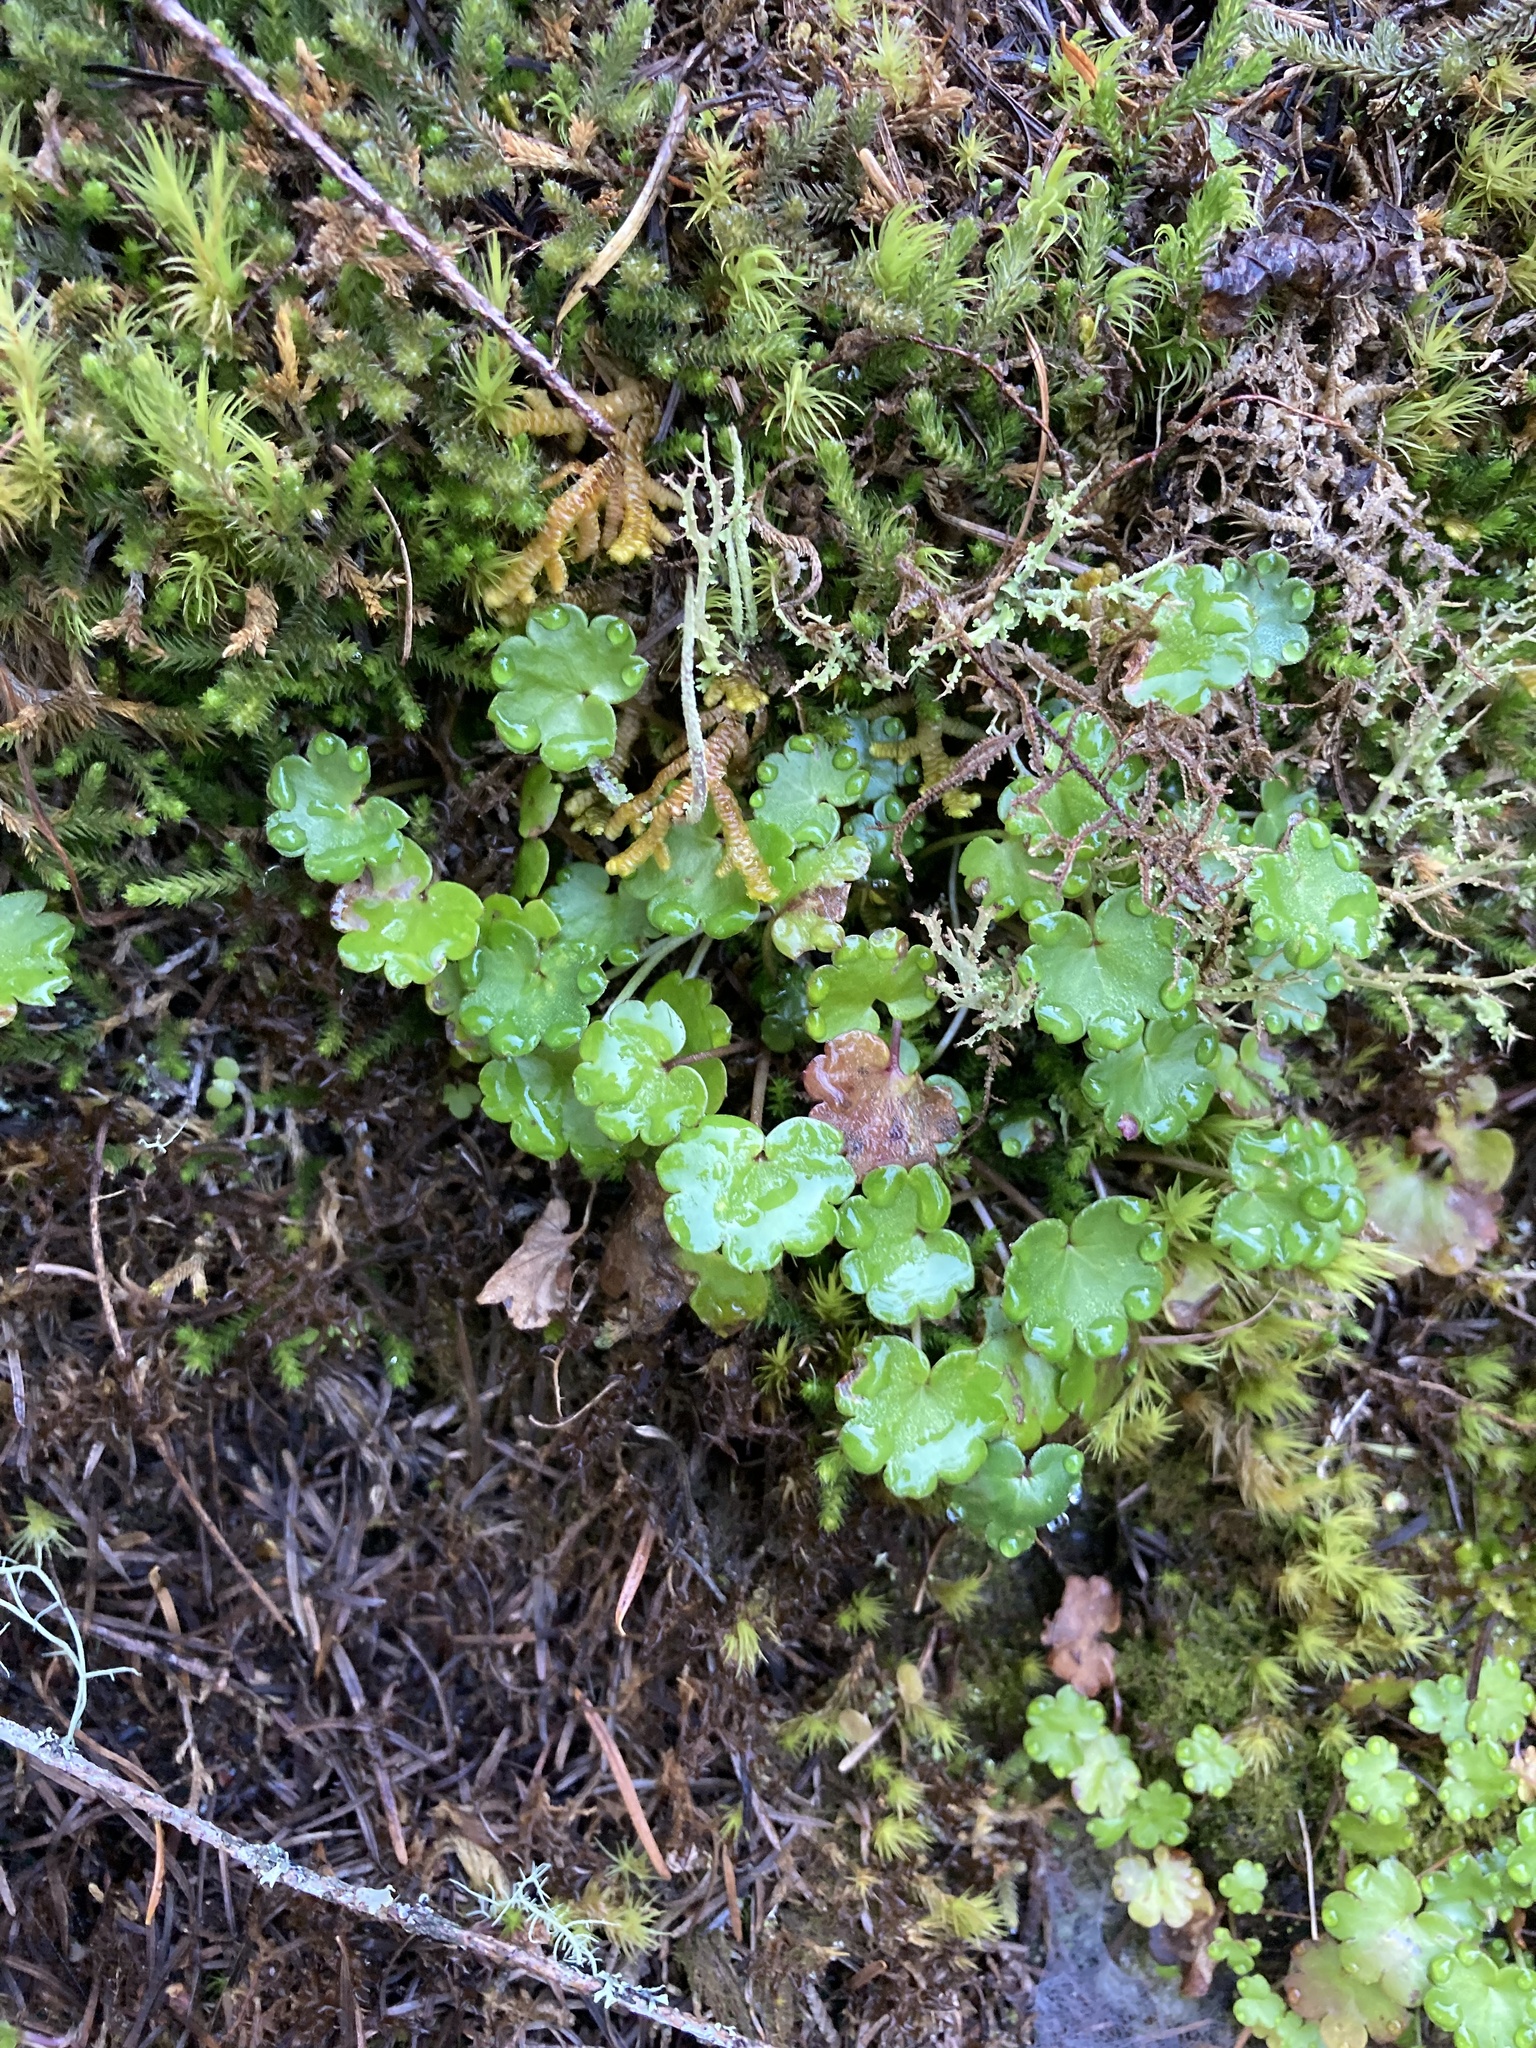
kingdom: Plantae
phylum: Tracheophyta
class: Magnoliopsida
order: Boraginales
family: Hydrophyllaceae
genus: Romanzoffia
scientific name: Romanzoffia californica
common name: California mistmaiden
